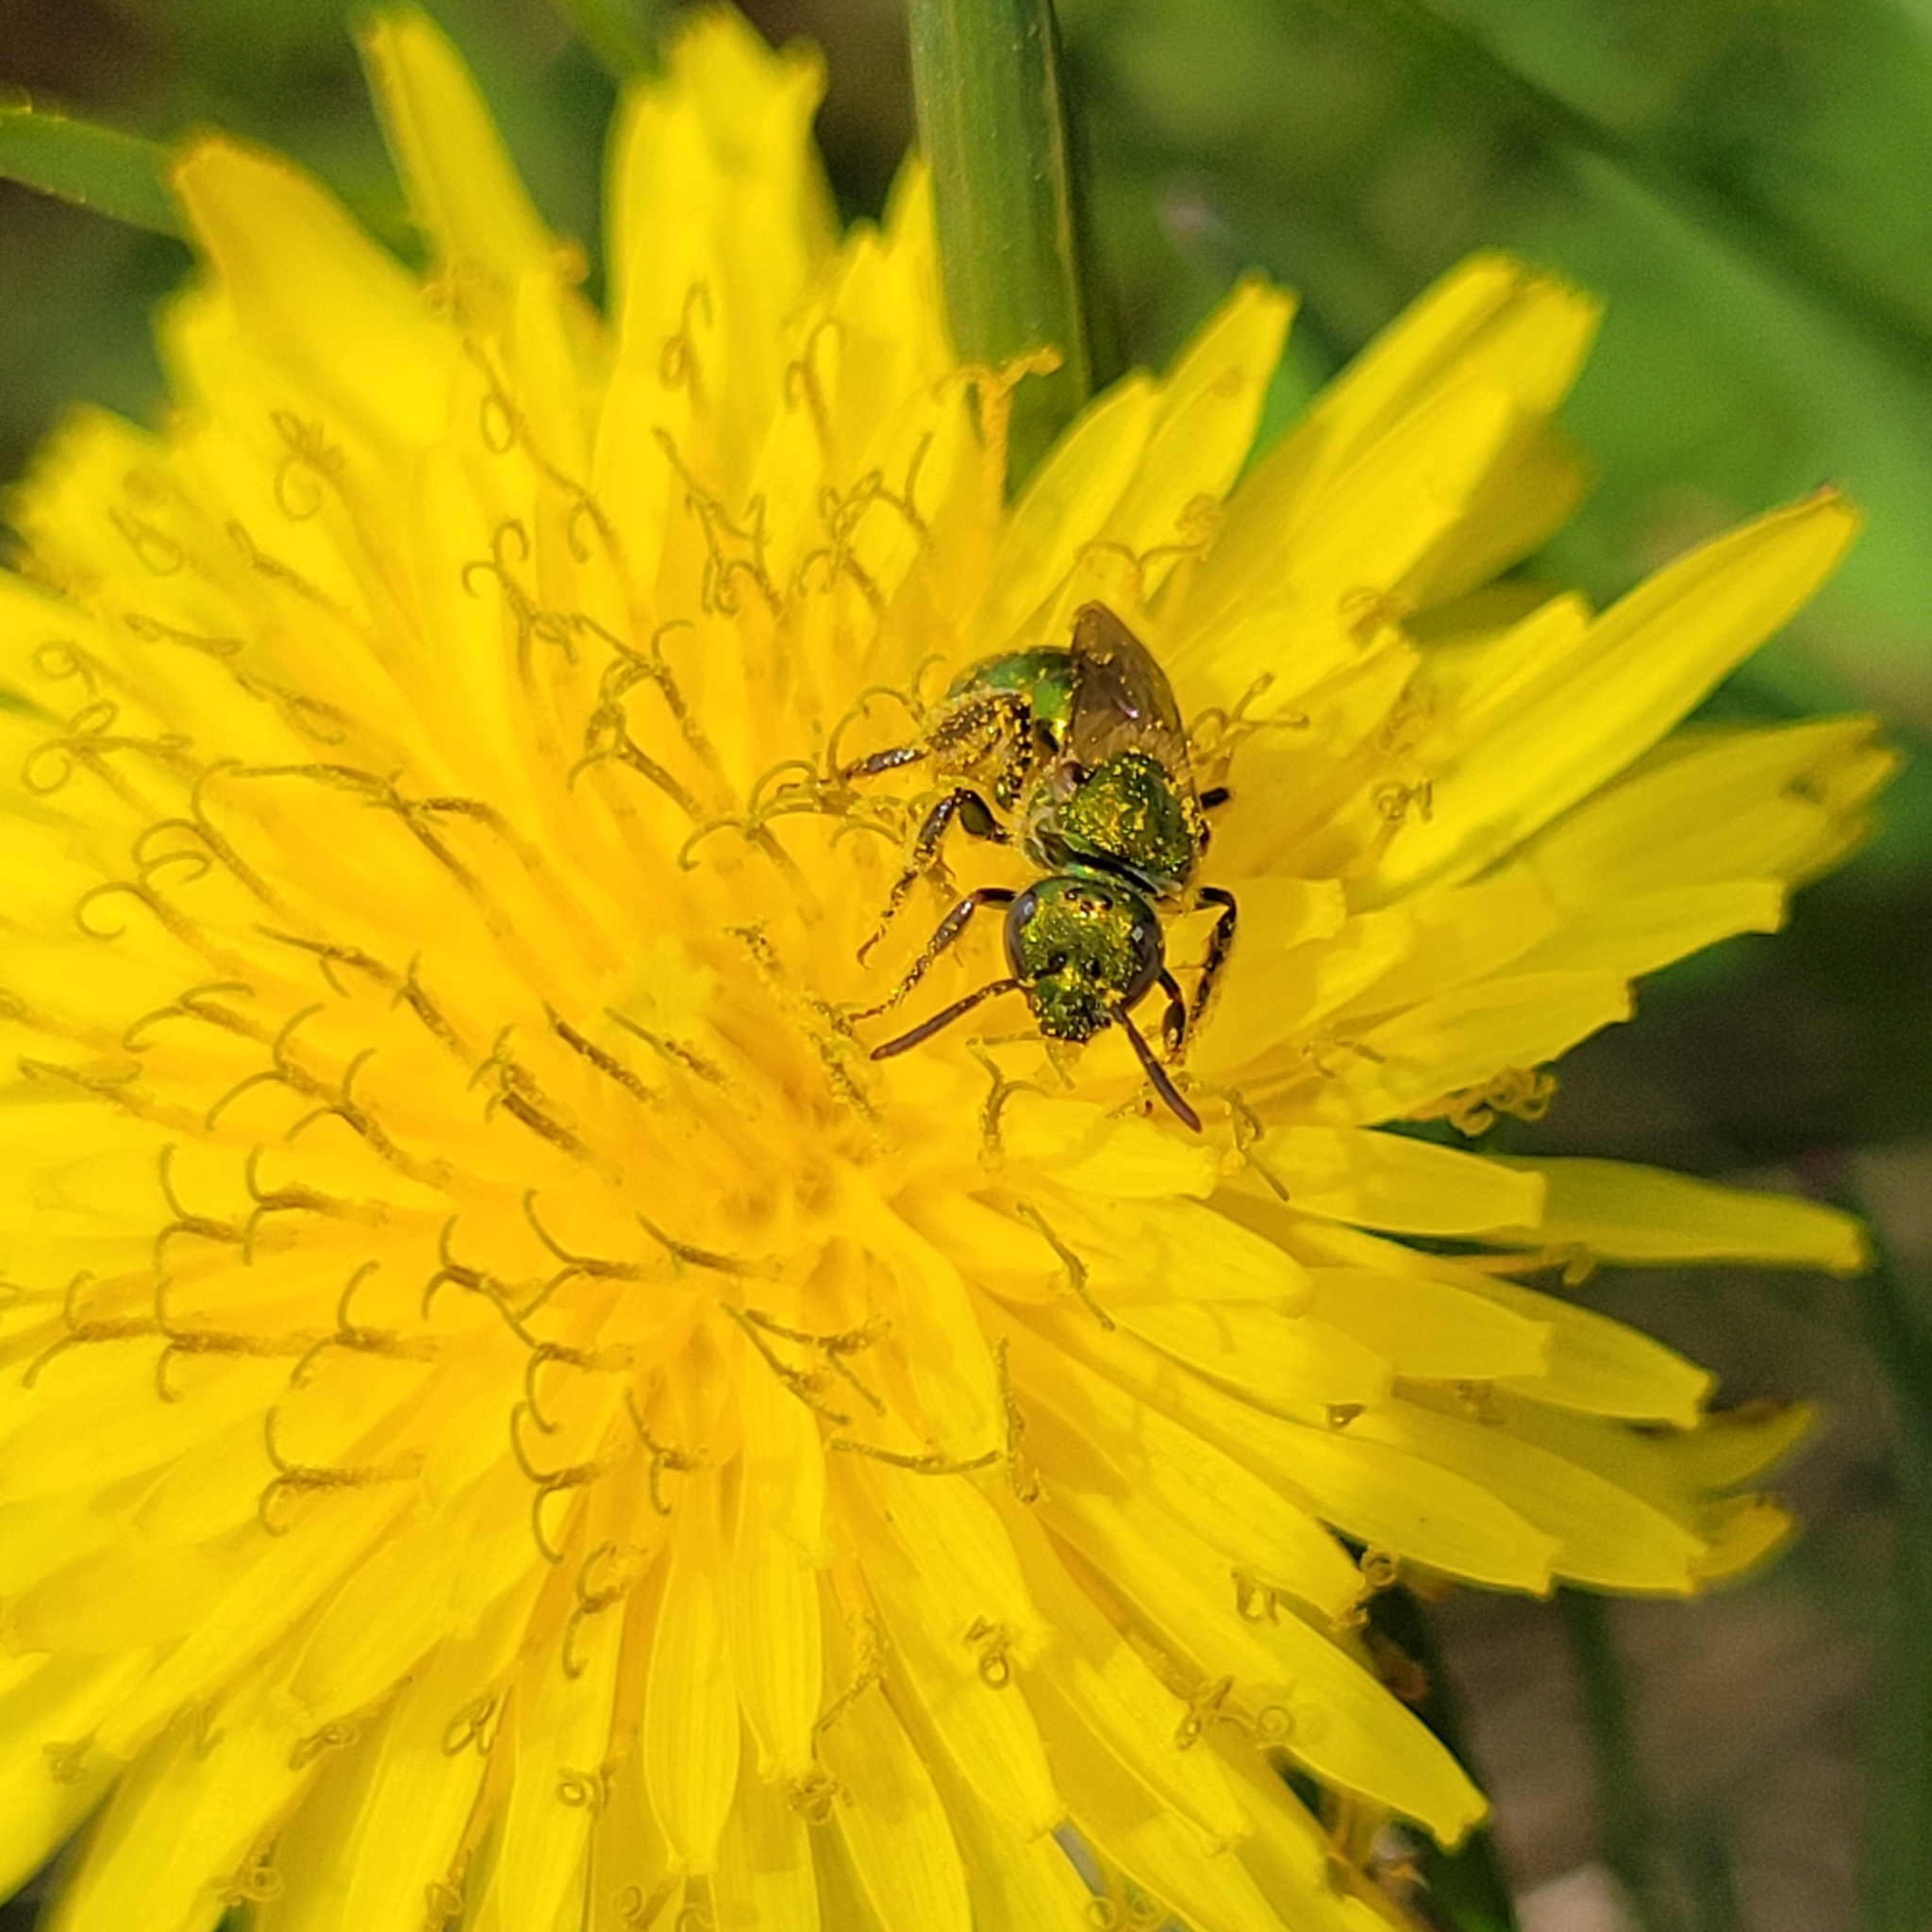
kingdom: Animalia
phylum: Arthropoda
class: Insecta
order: Hymenoptera
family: Halictidae
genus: Augochlorella
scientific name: Augochlorella aurata
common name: Golden sweat bee
